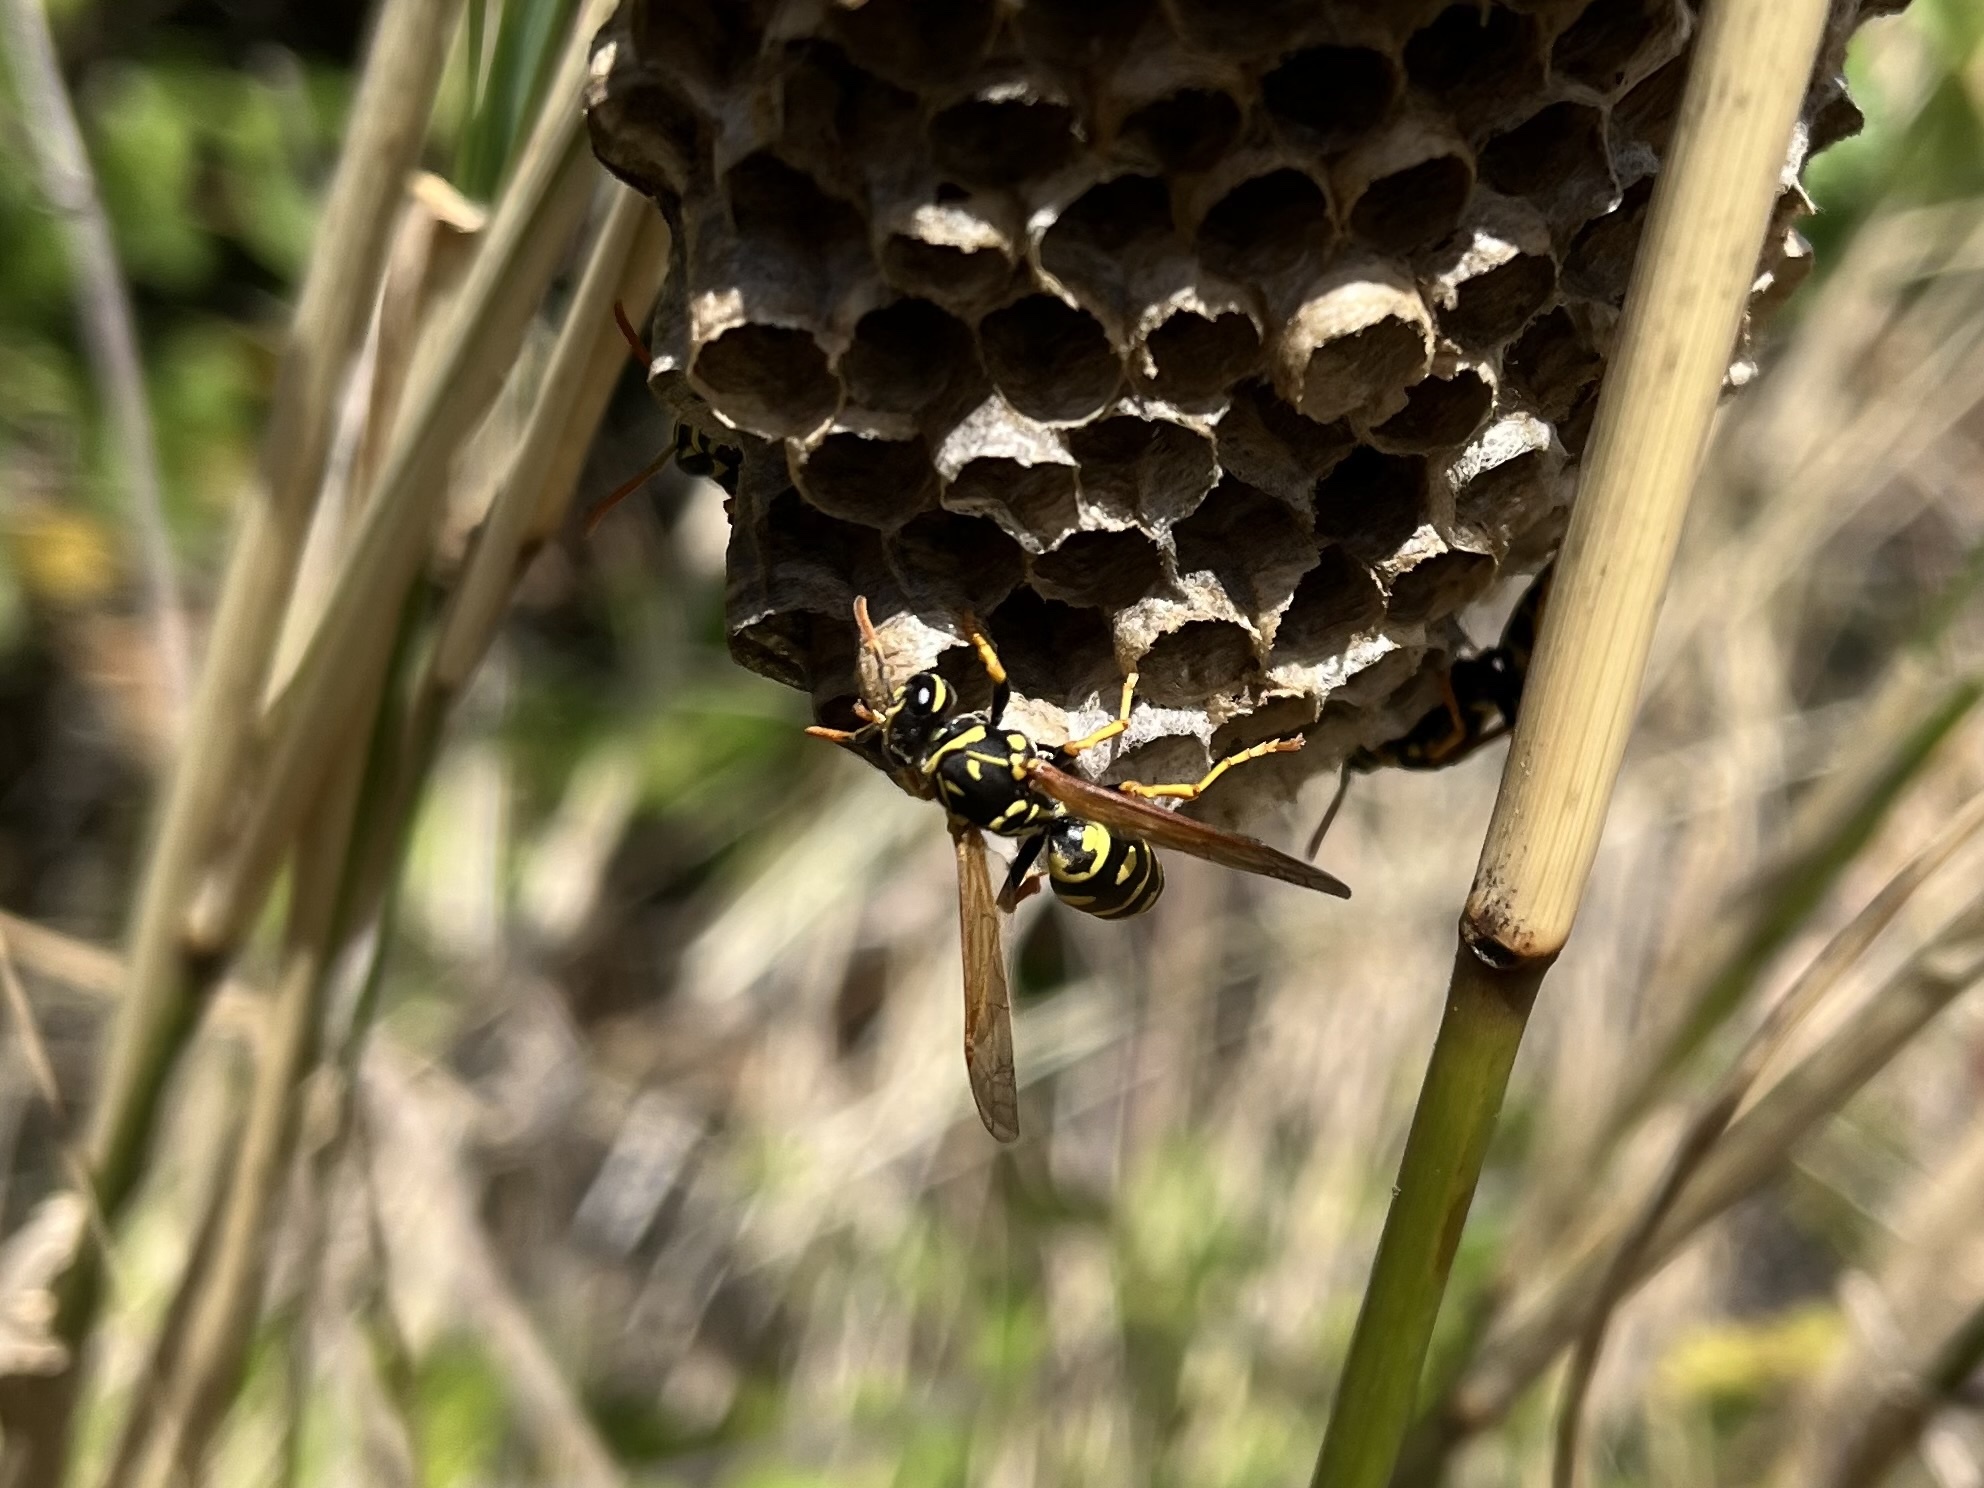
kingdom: Animalia
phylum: Arthropoda
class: Insecta
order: Hymenoptera
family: Eumenidae
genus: Polistes
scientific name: Polistes
